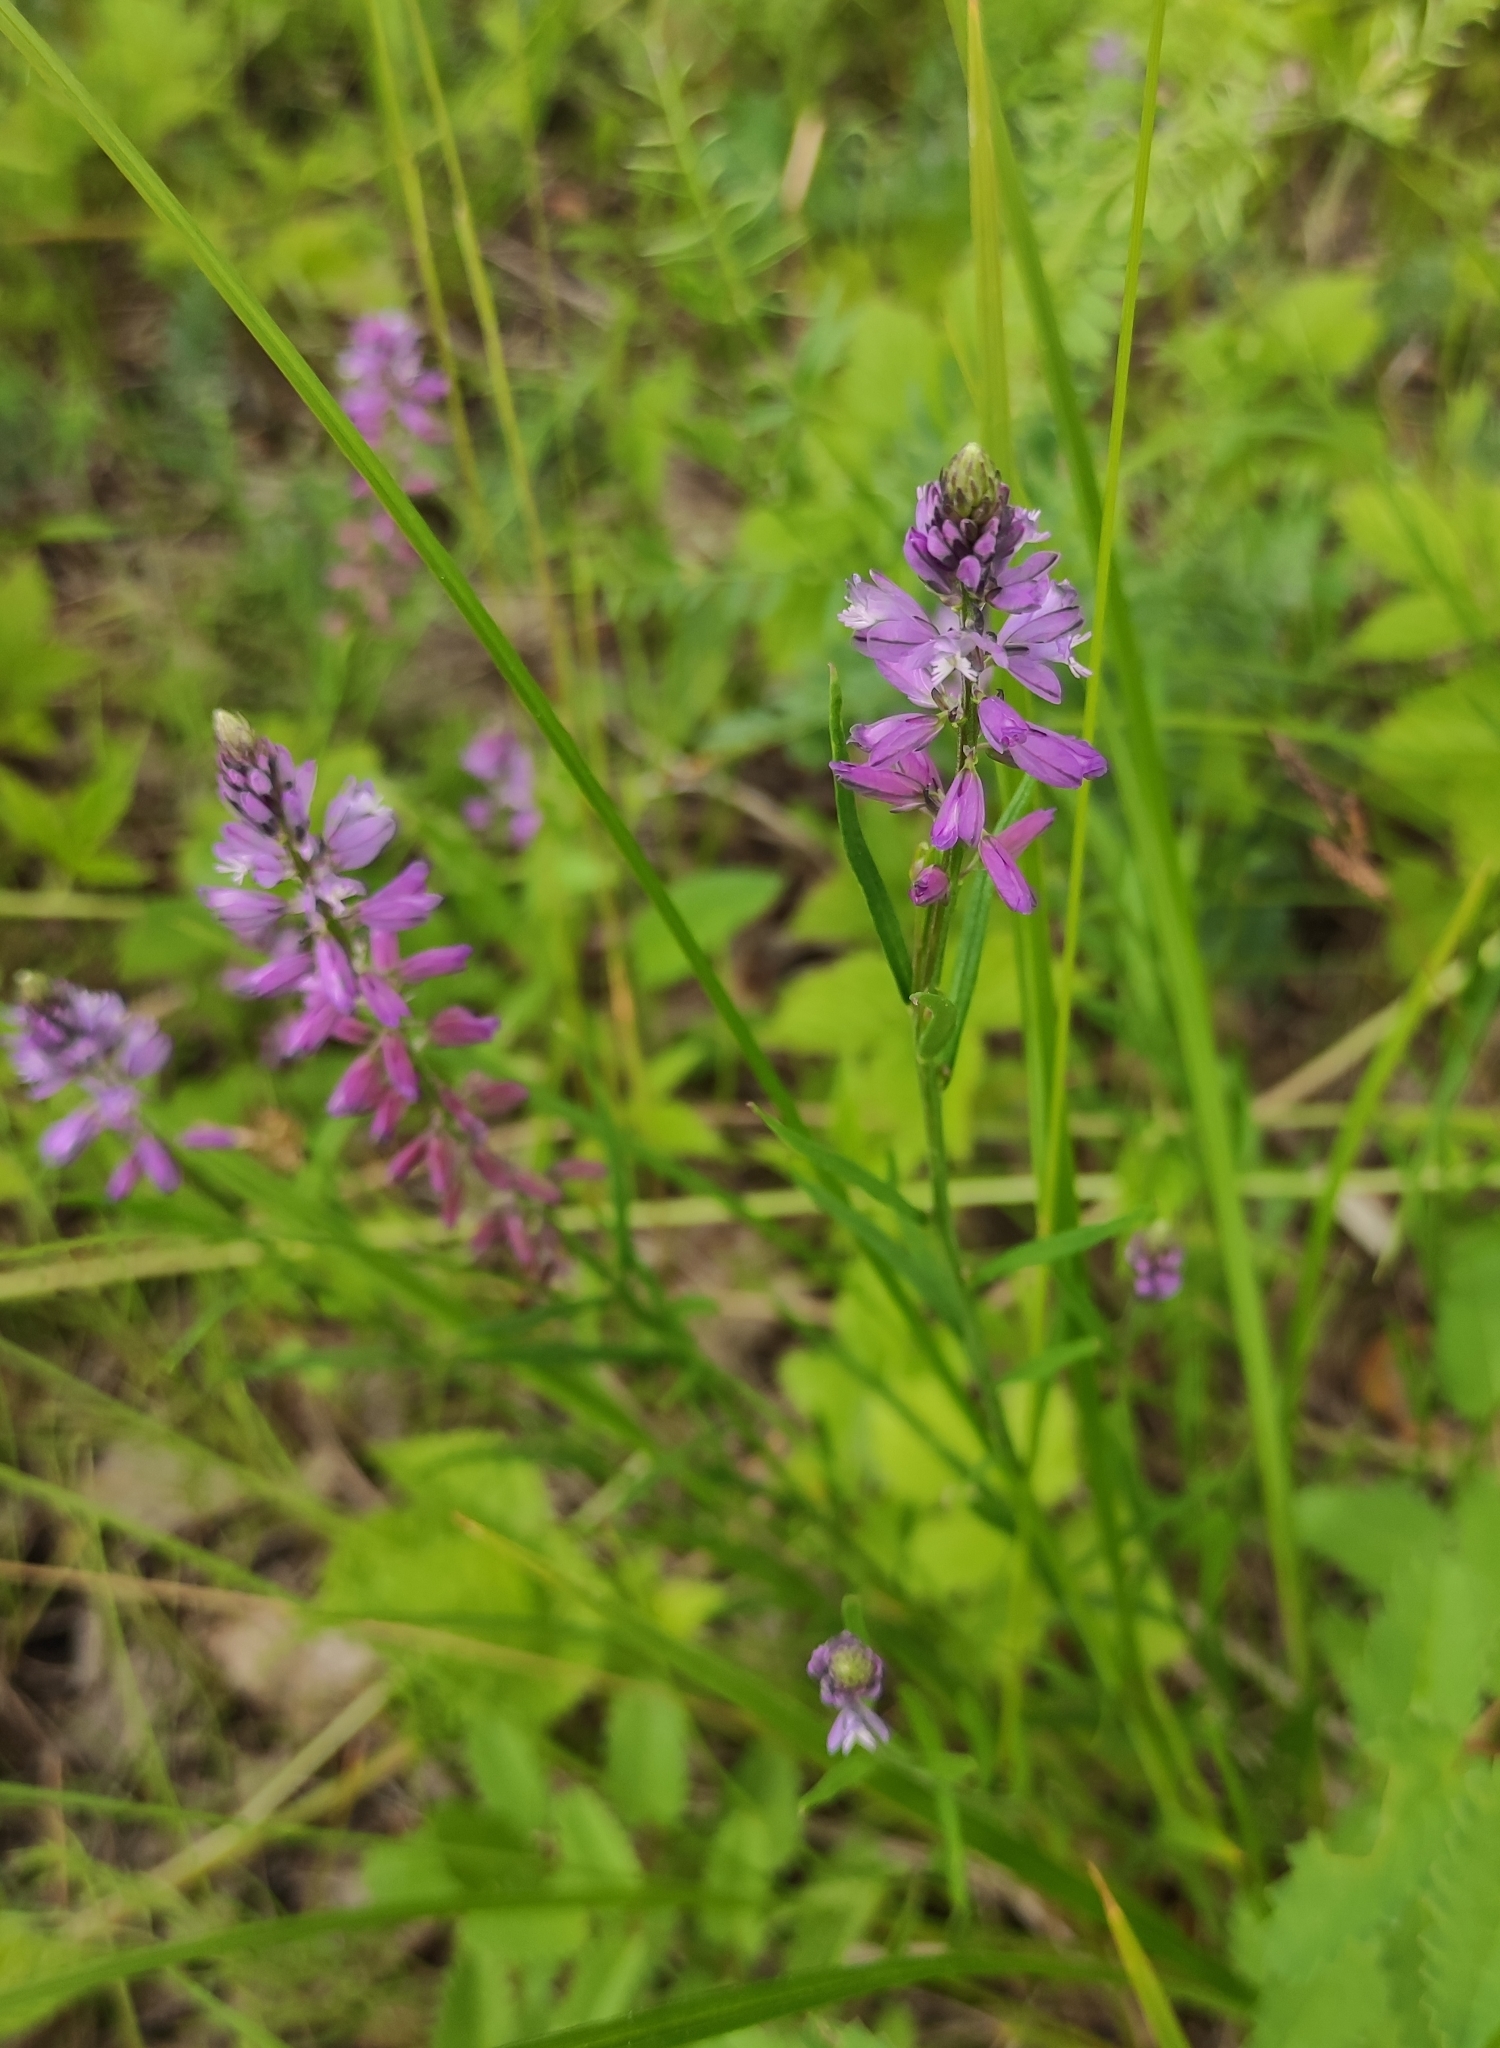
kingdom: Plantae
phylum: Tracheophyta
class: Magnoliopsida
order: Fabales
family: Polygalaceae
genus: Polygala
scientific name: Polygala comosa
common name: Tufted milkwort
